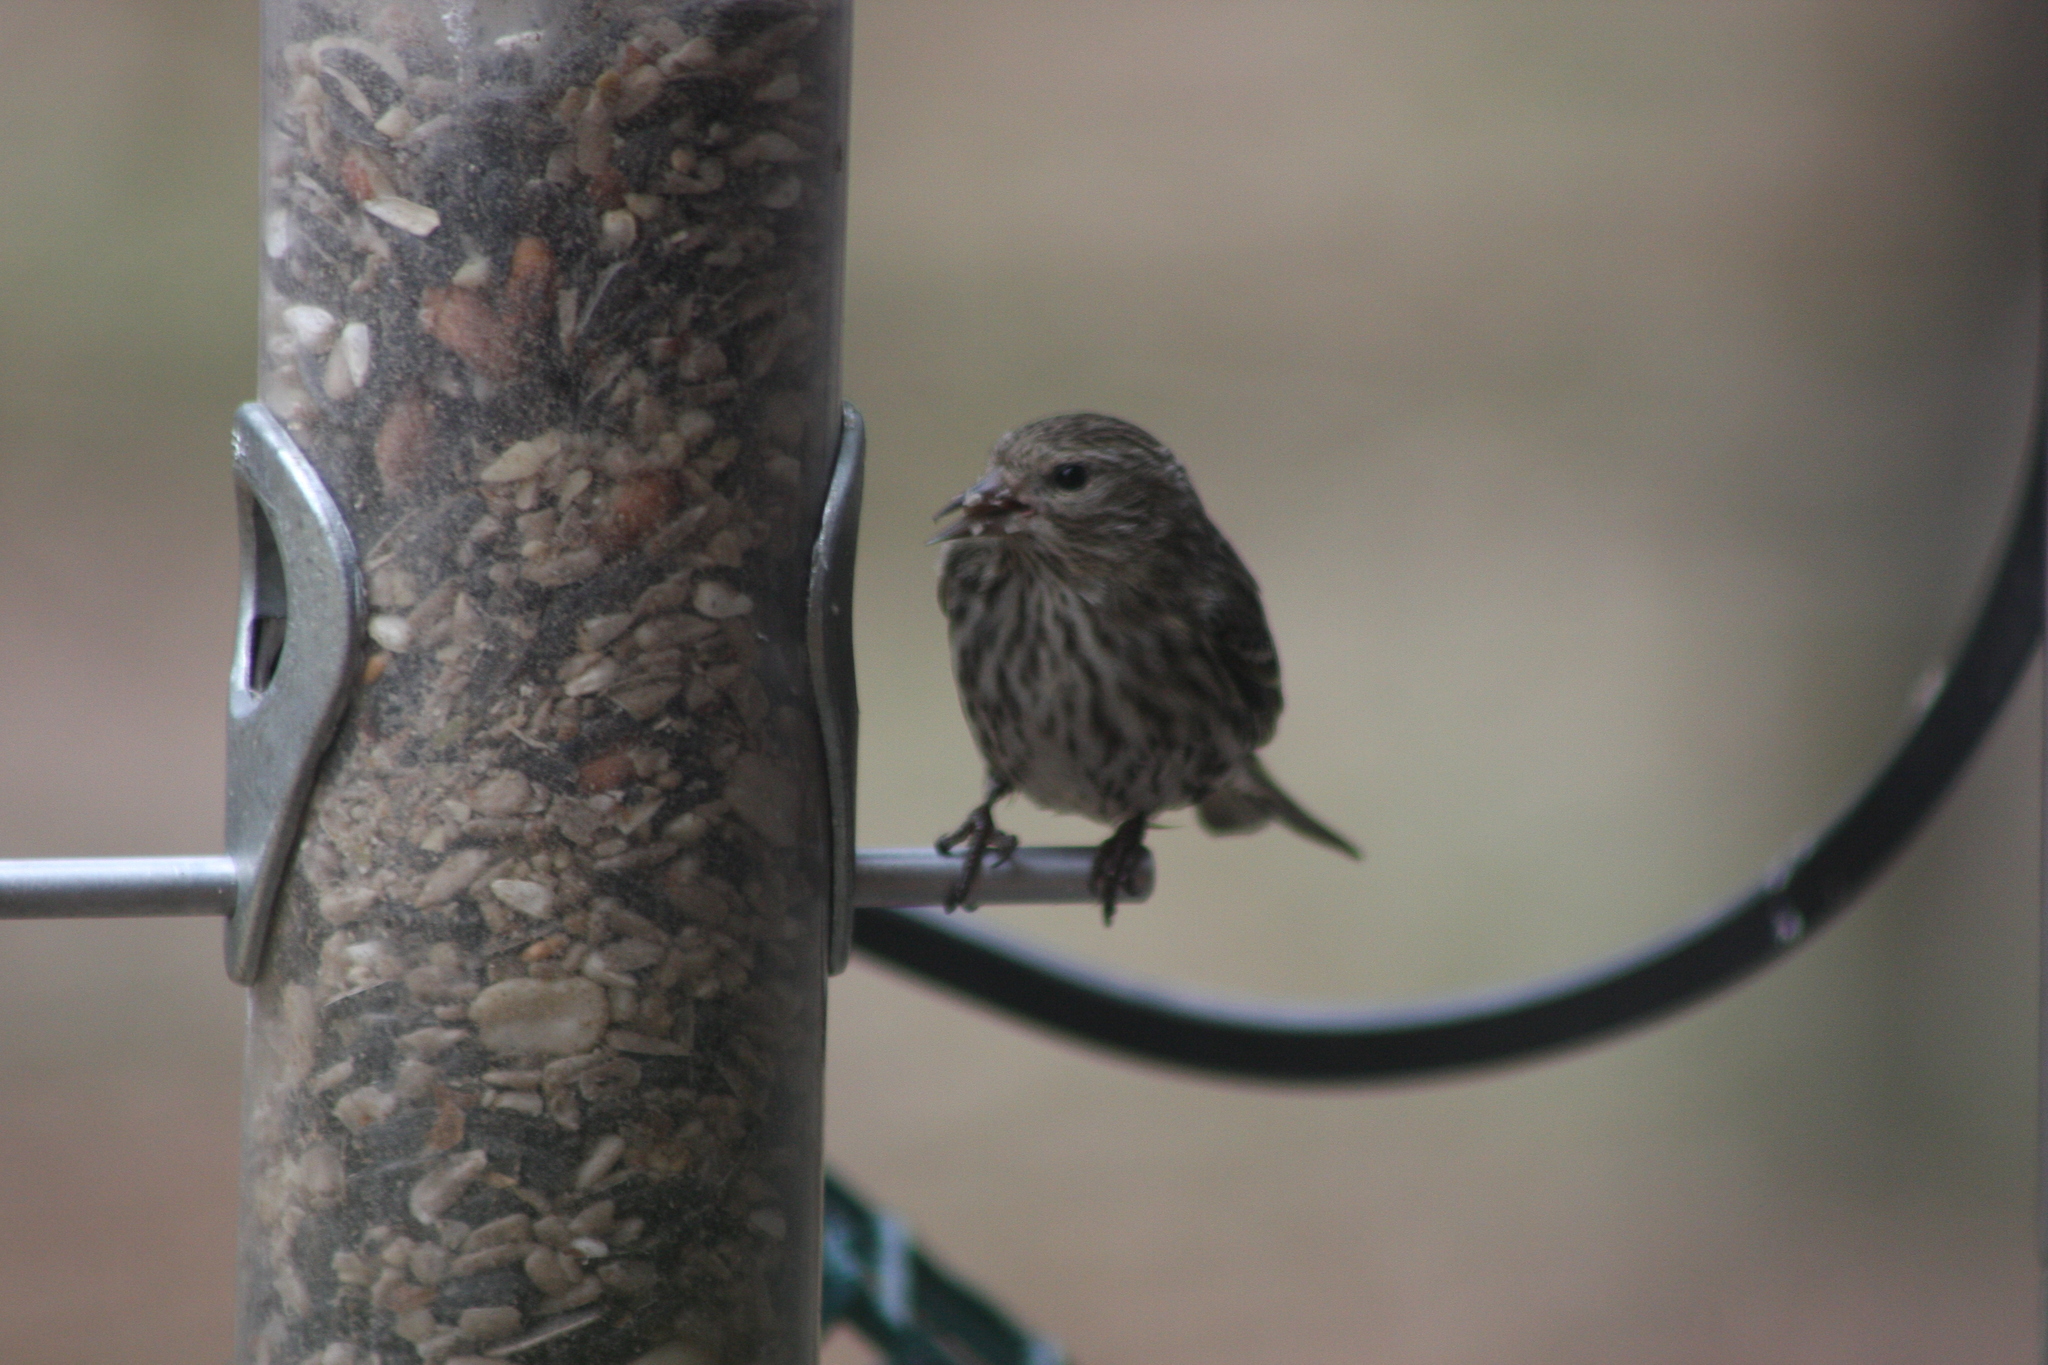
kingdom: Animalia
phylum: Chordata
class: Aves
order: Passeriformes
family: Fringillidae
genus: Spinus
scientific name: Spinus pinus
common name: Pine siskin
